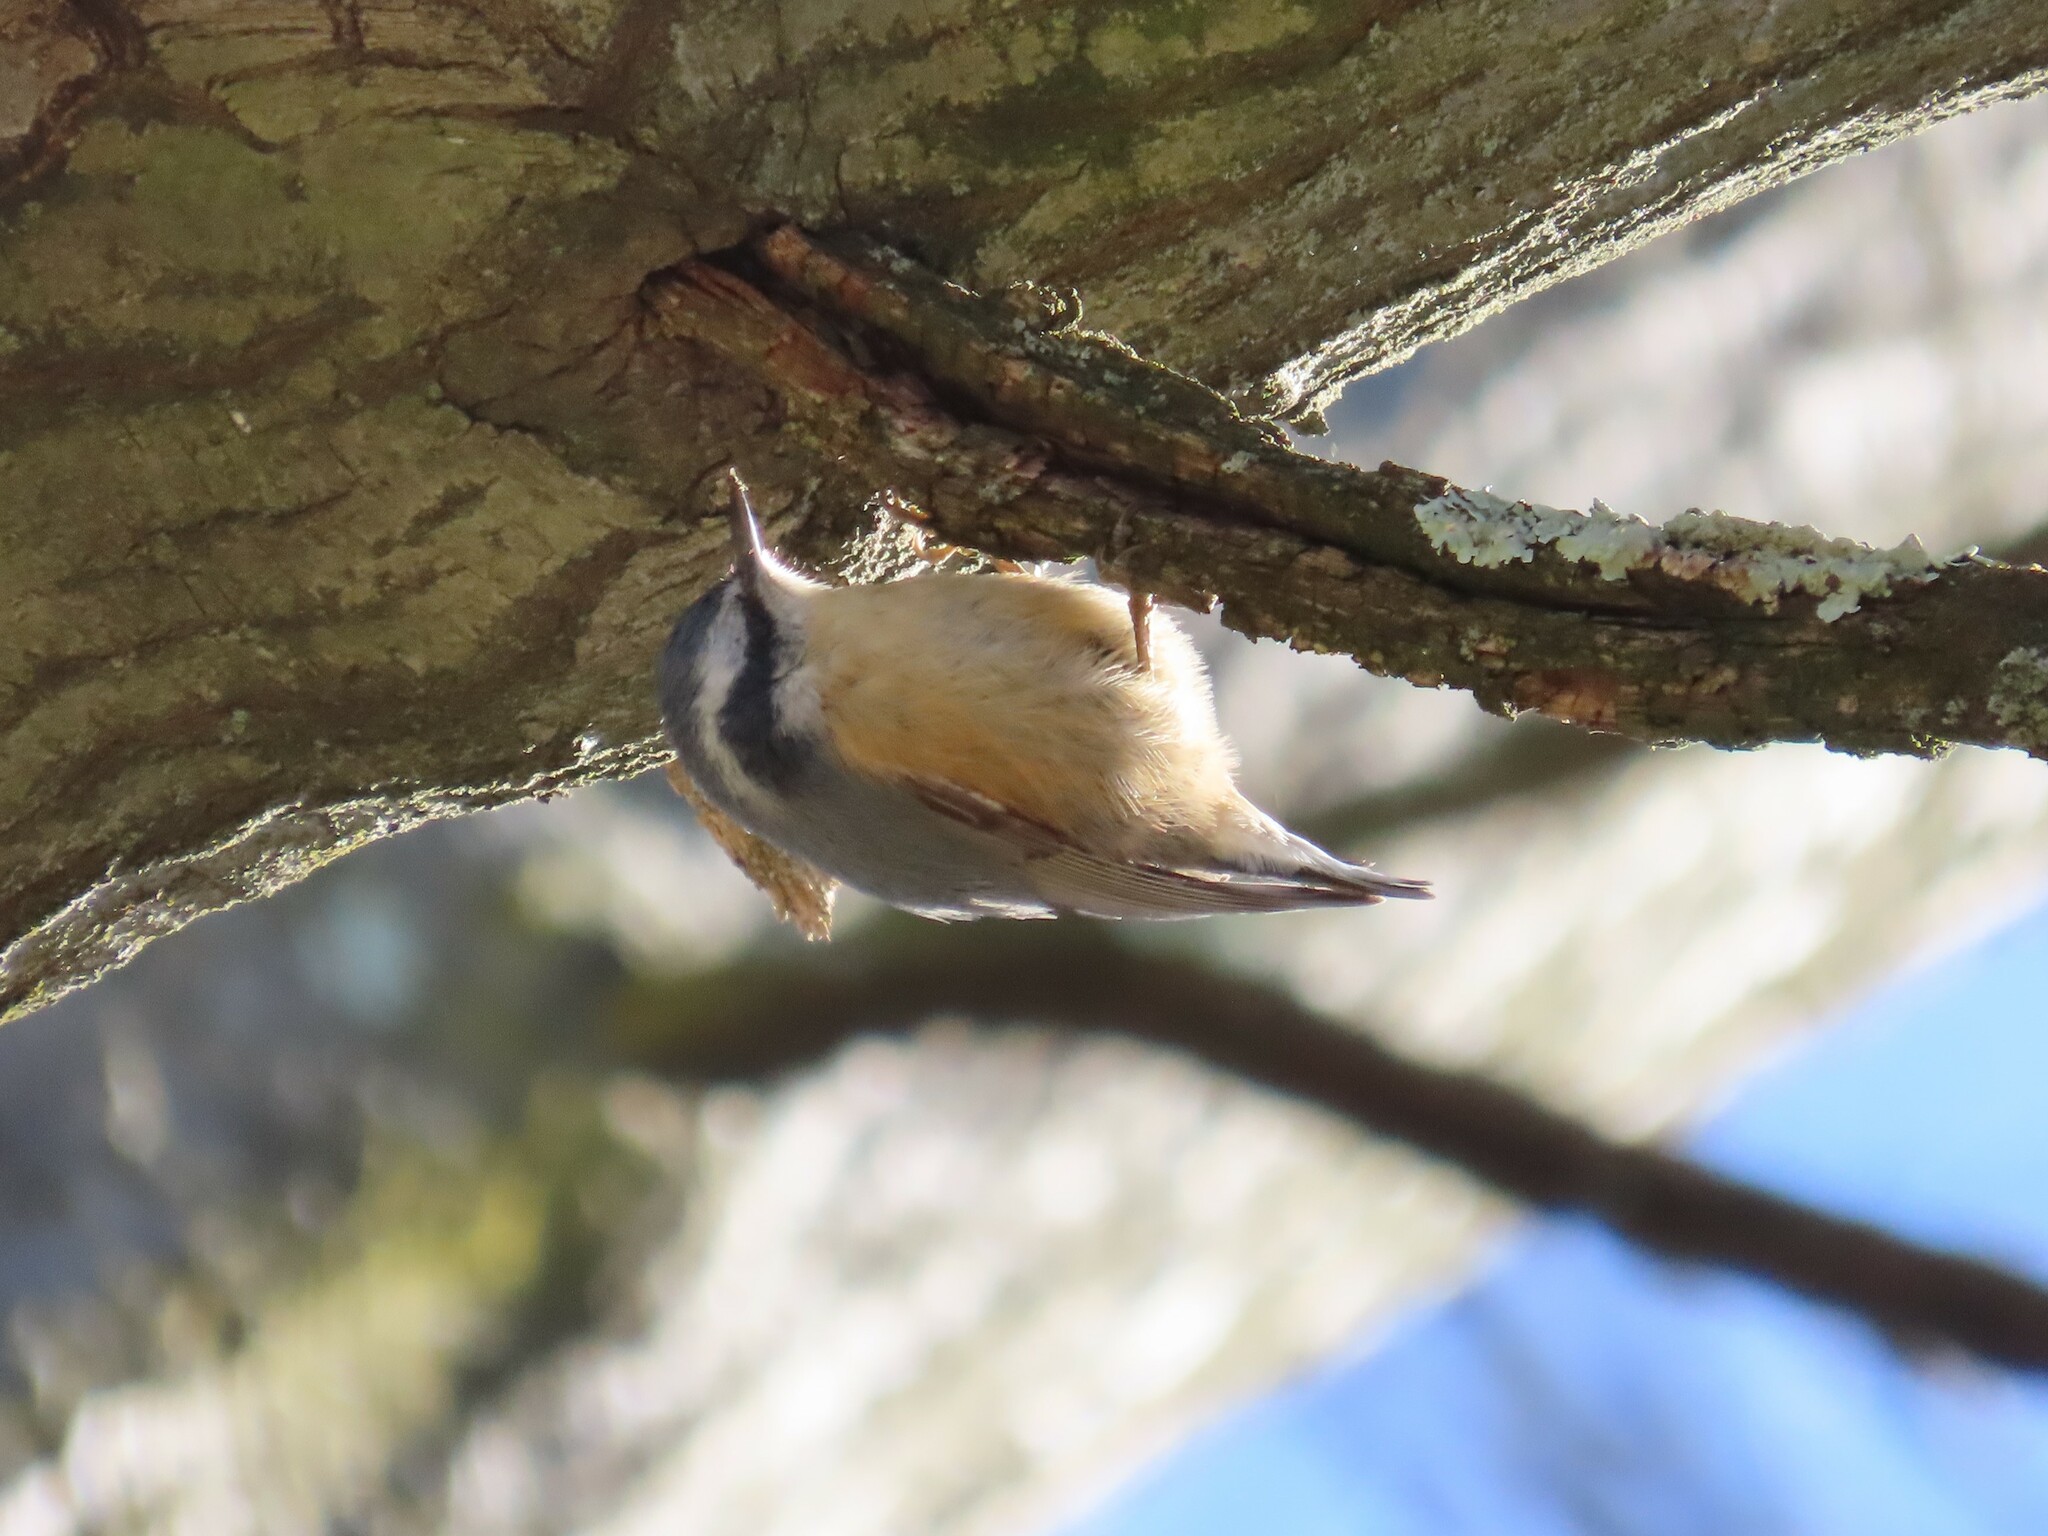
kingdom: Animalia
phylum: Chordata
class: Aves
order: Passeriformes
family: Sittidae
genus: Sitta
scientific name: Sitta canadensis
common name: Red-breasted nuthatch
